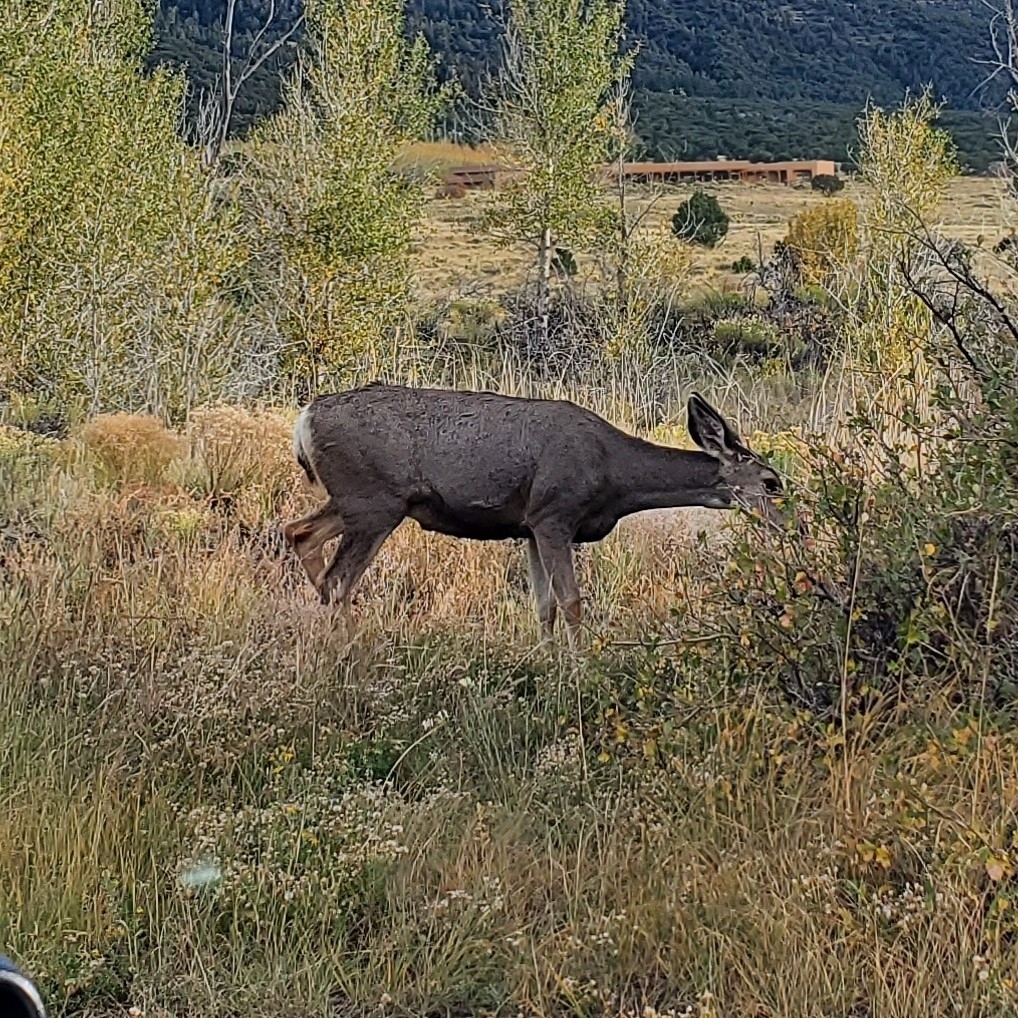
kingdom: Animalia
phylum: Chordata
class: Mammalia
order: Artiodactyla
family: Cervidae
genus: Odocoileus
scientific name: Odocoileus hemionus
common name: Mule deer
